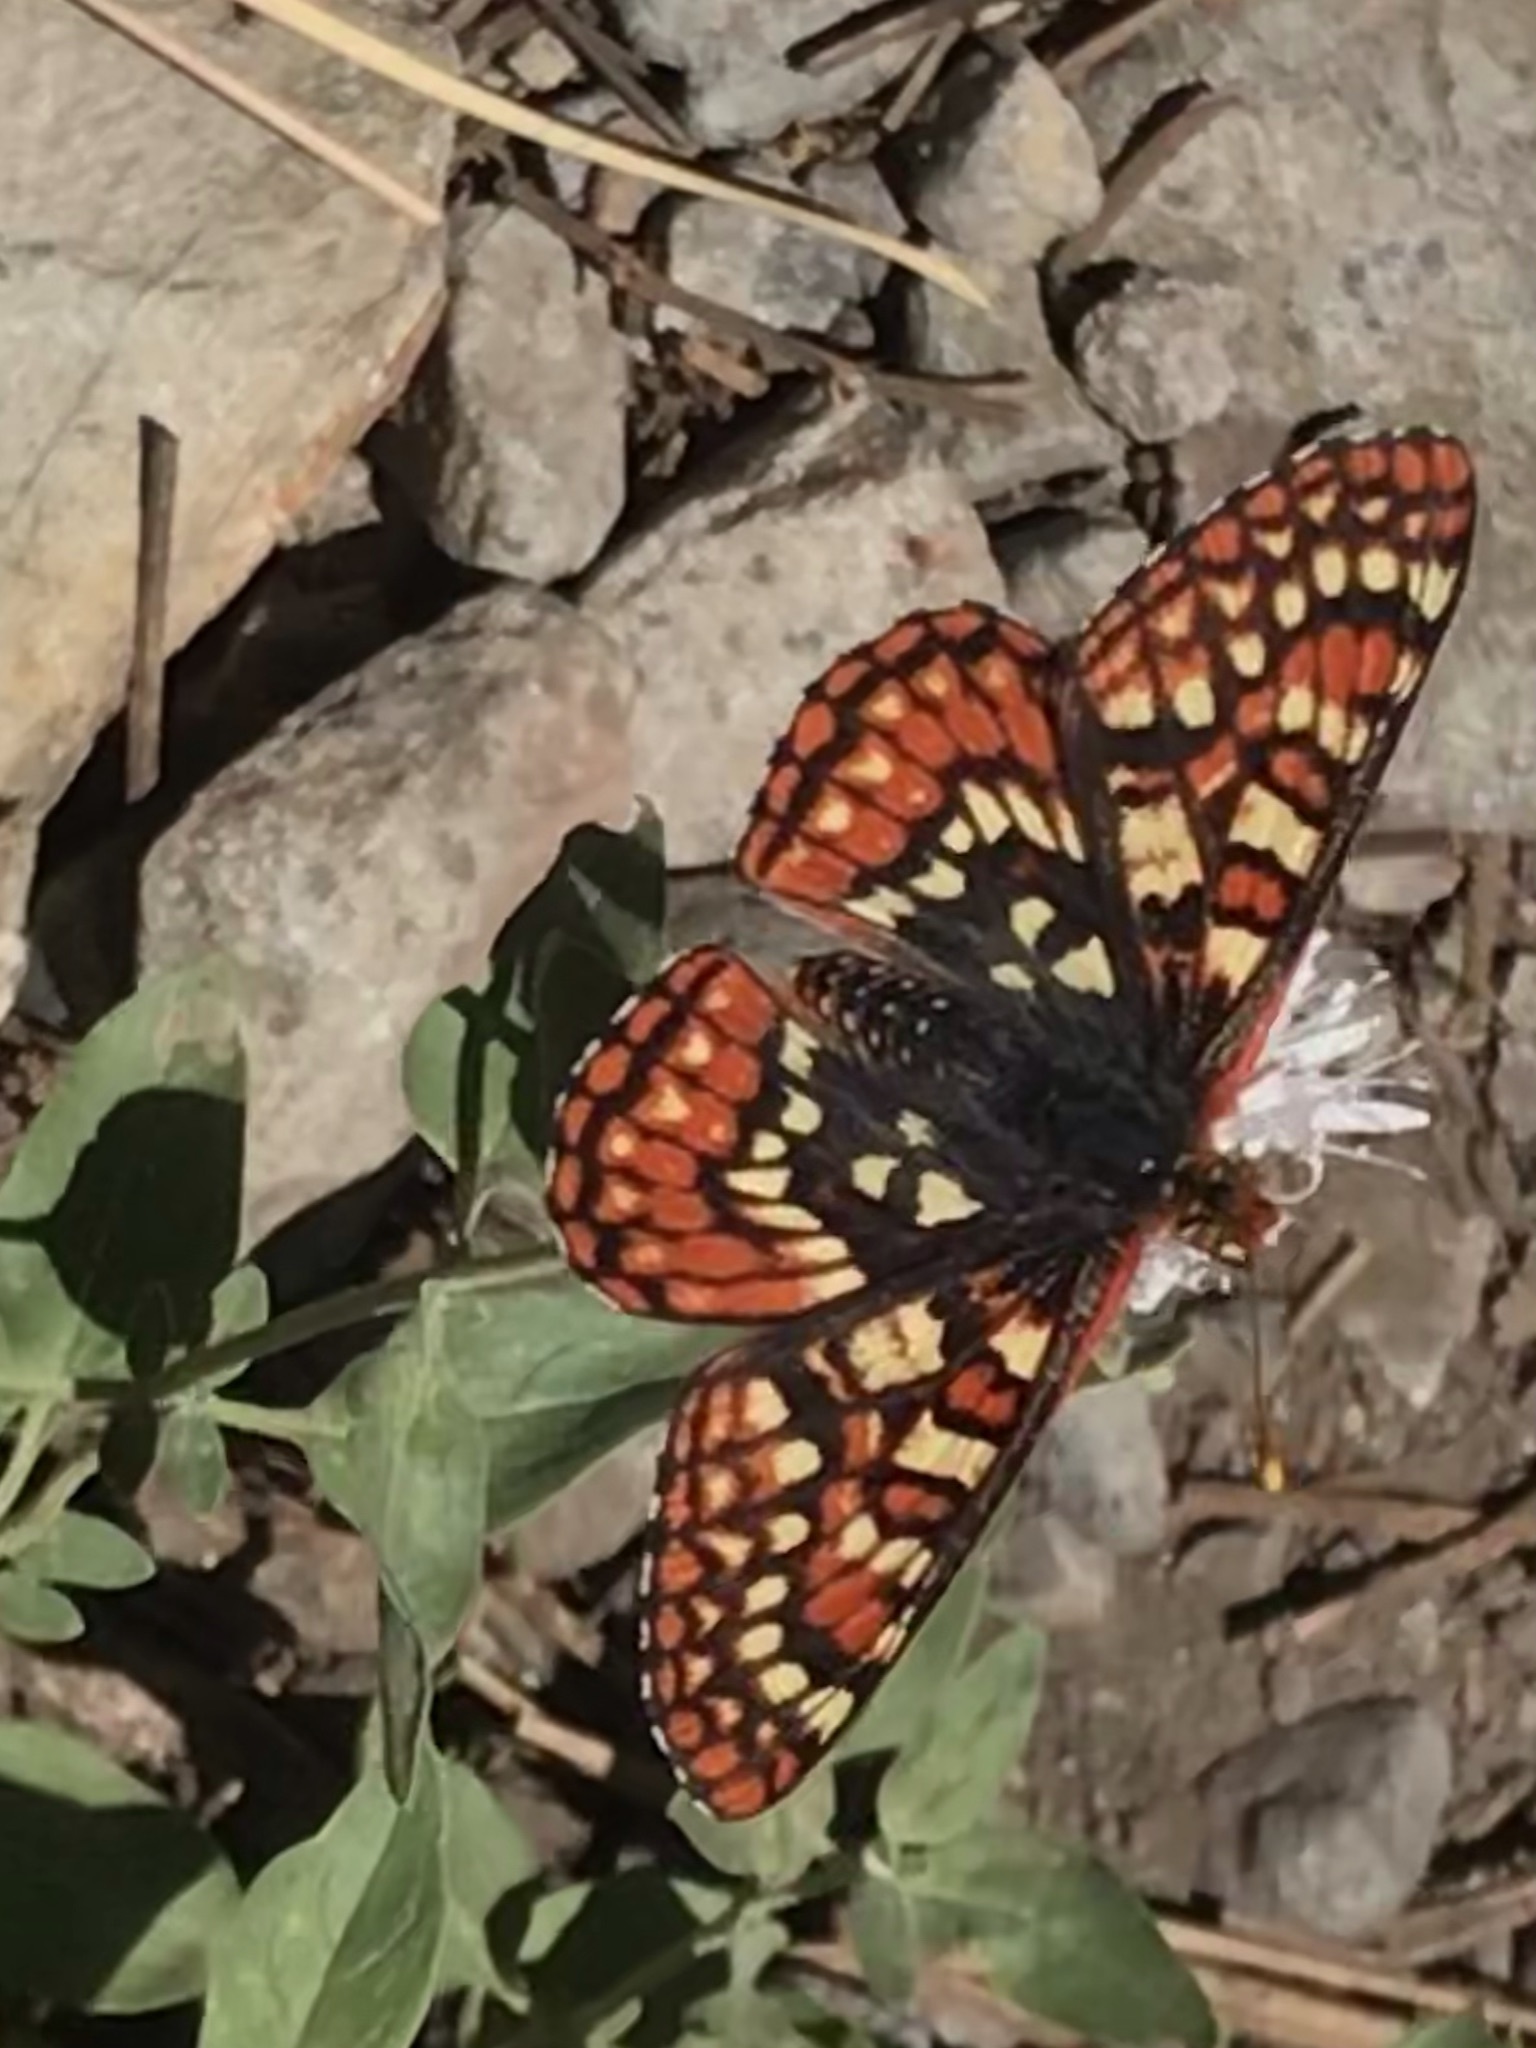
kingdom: Animalia
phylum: Arthropoda
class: Insecta
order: Lepidoptera
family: Nymphalidae
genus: Occidryas
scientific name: Occidryas chalcedona
